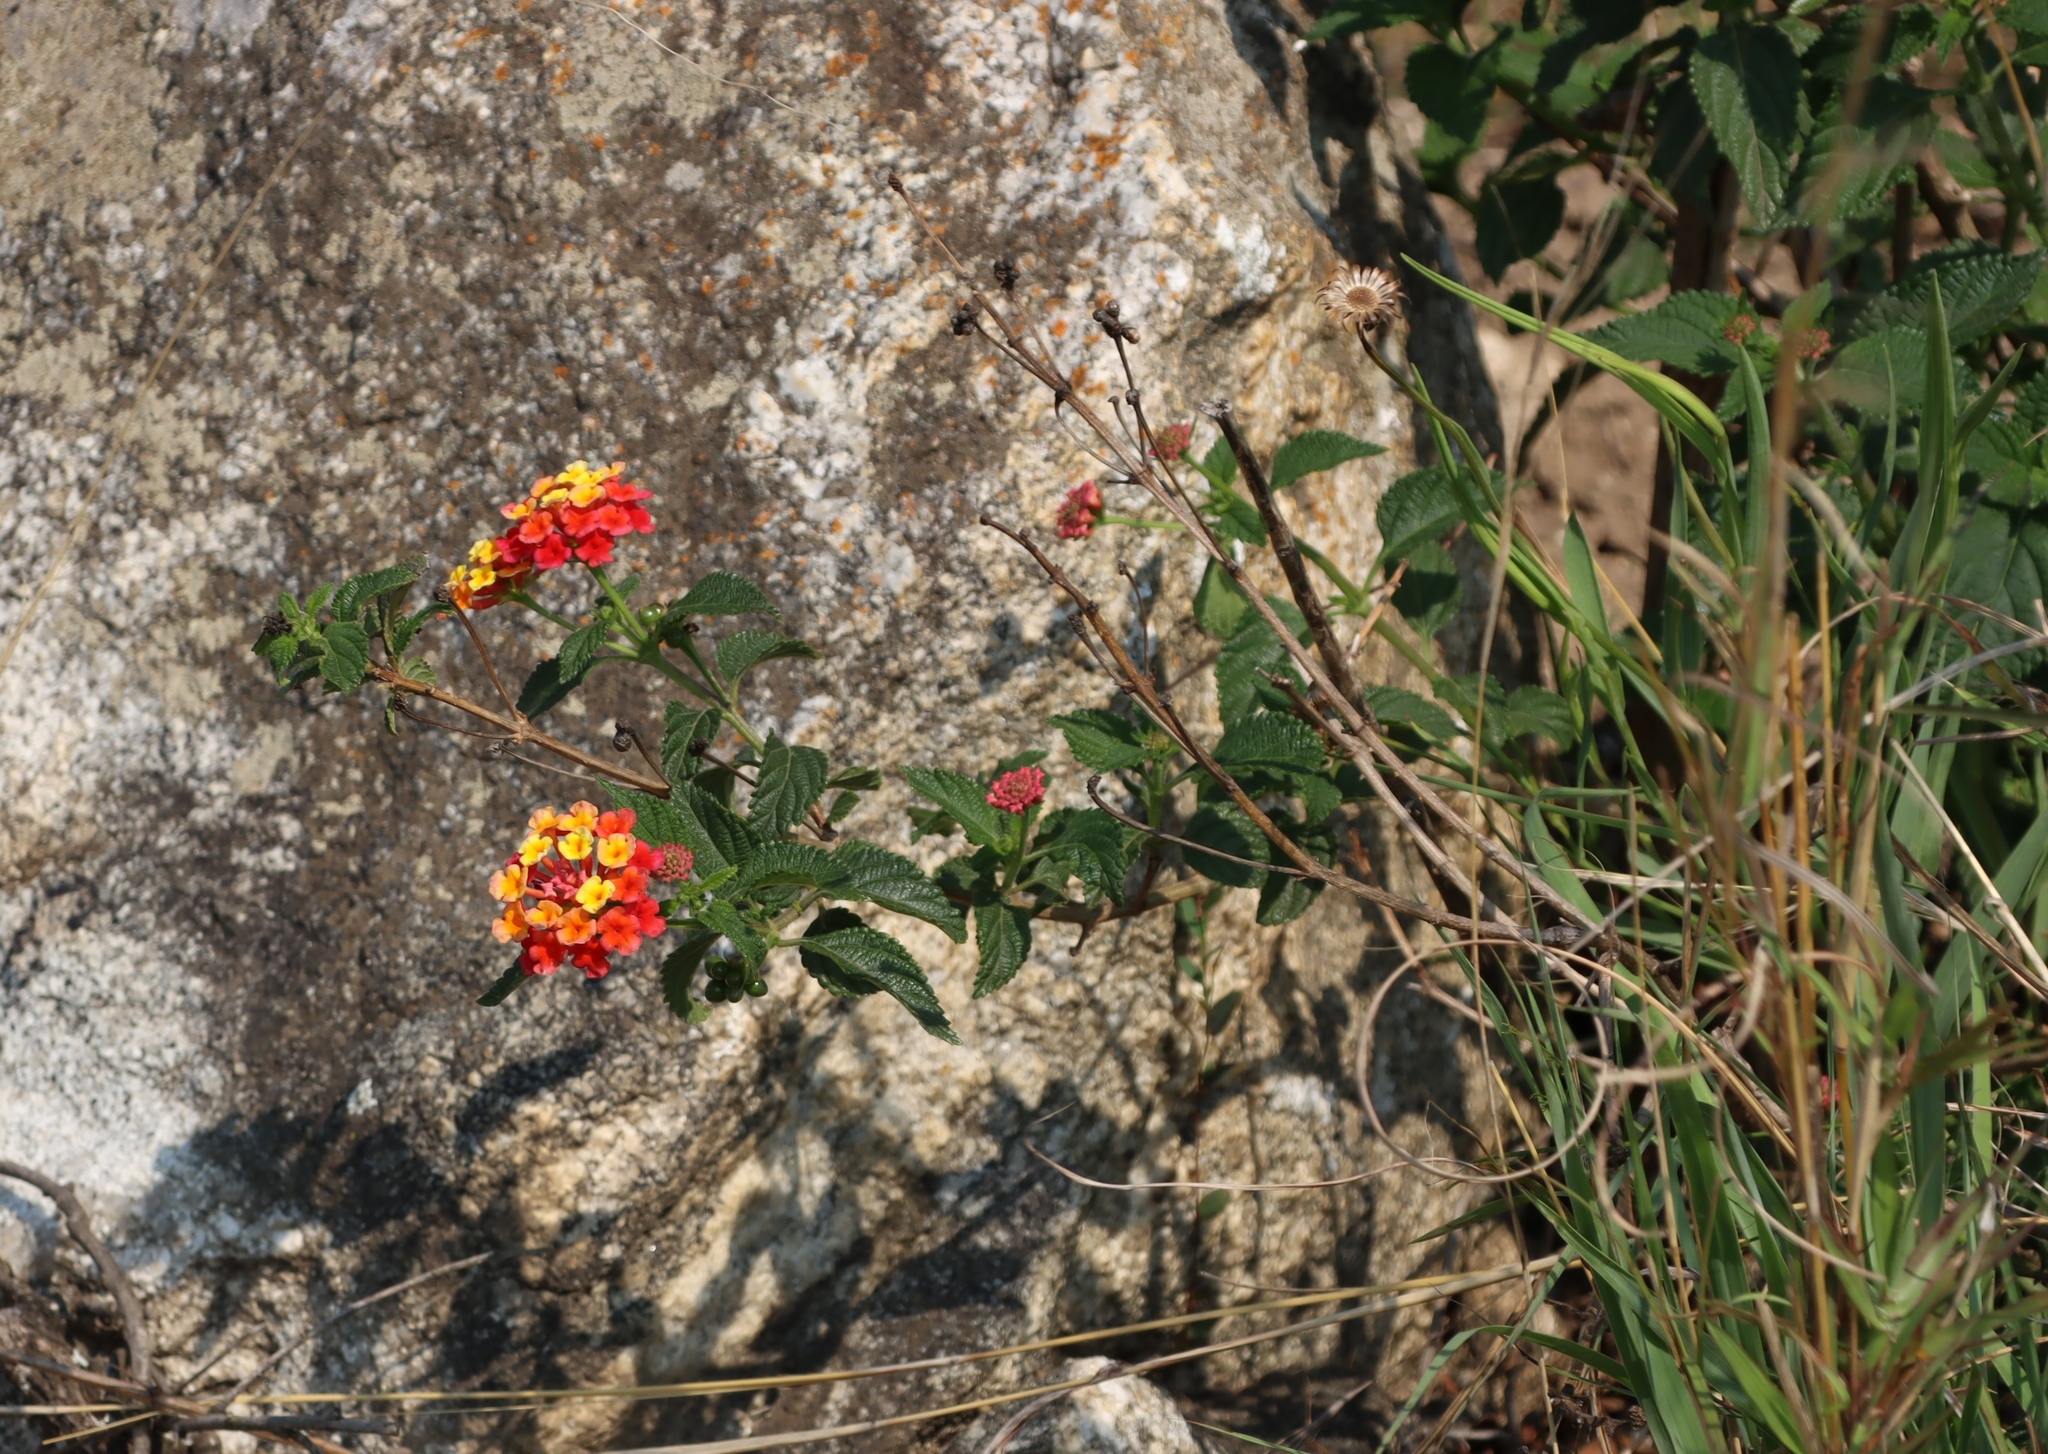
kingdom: Plantae
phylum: Tracheophyta
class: Magnoliopsida
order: Lamiales
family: Verbenaceae
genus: Lantana
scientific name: Lantana camara
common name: Lantana
